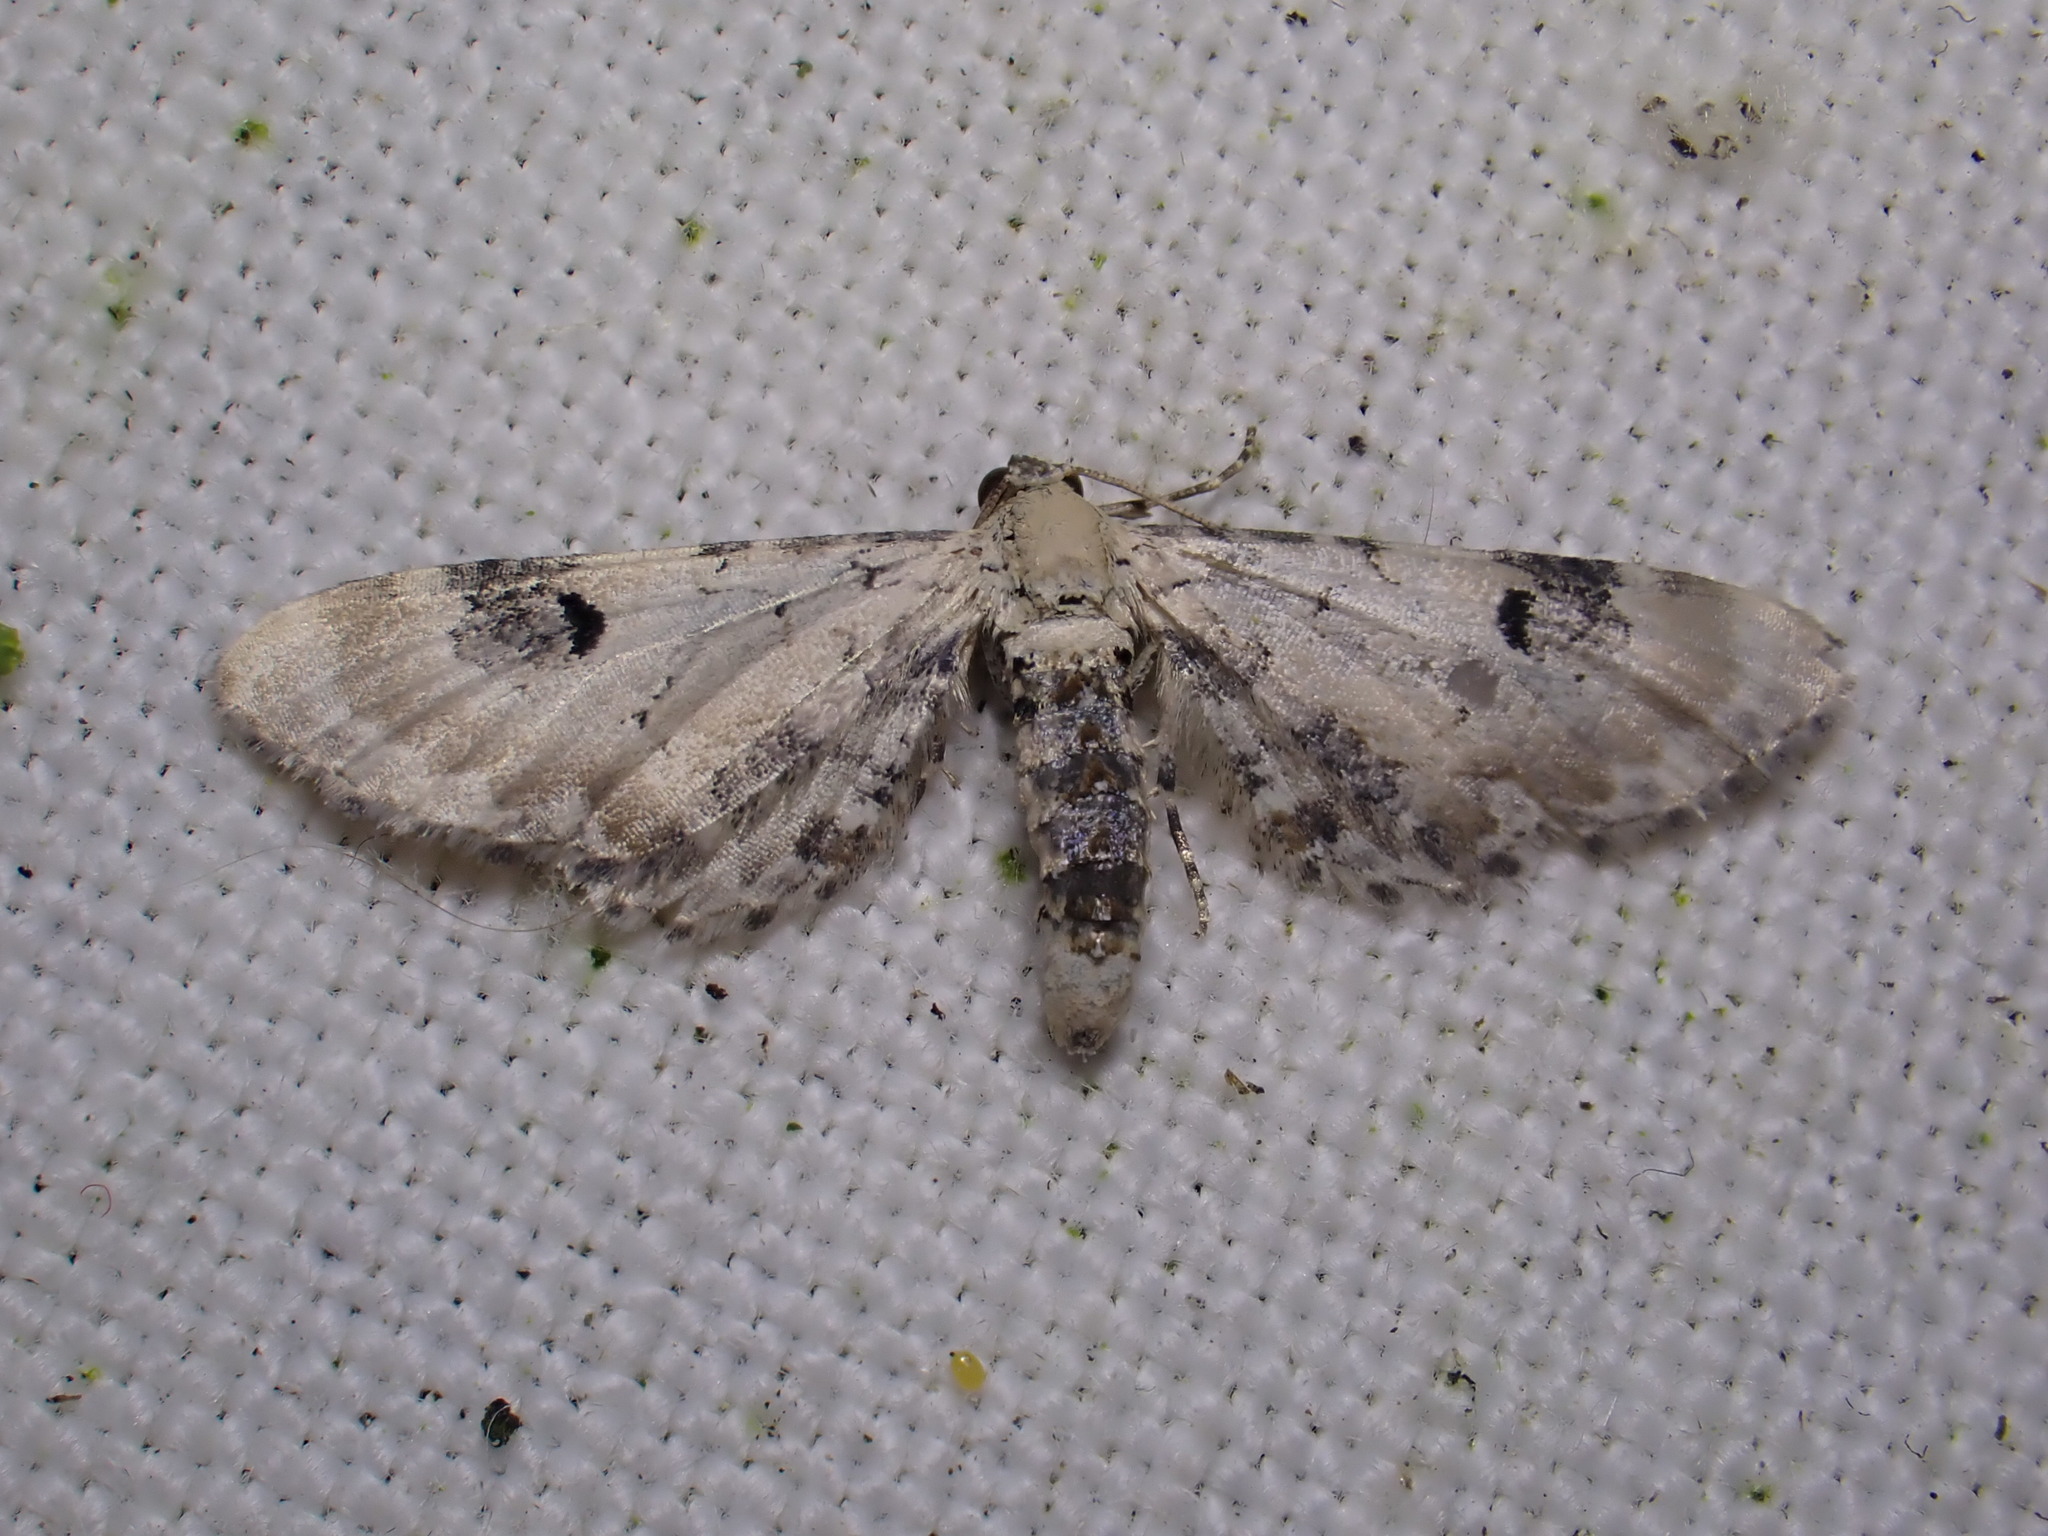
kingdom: Animalia
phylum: Arthropoda
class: Insecta
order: Lepidoptera
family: Geometridae
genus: Eupithecia
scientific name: Eupithecia centaureata
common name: Lime-speck pug
